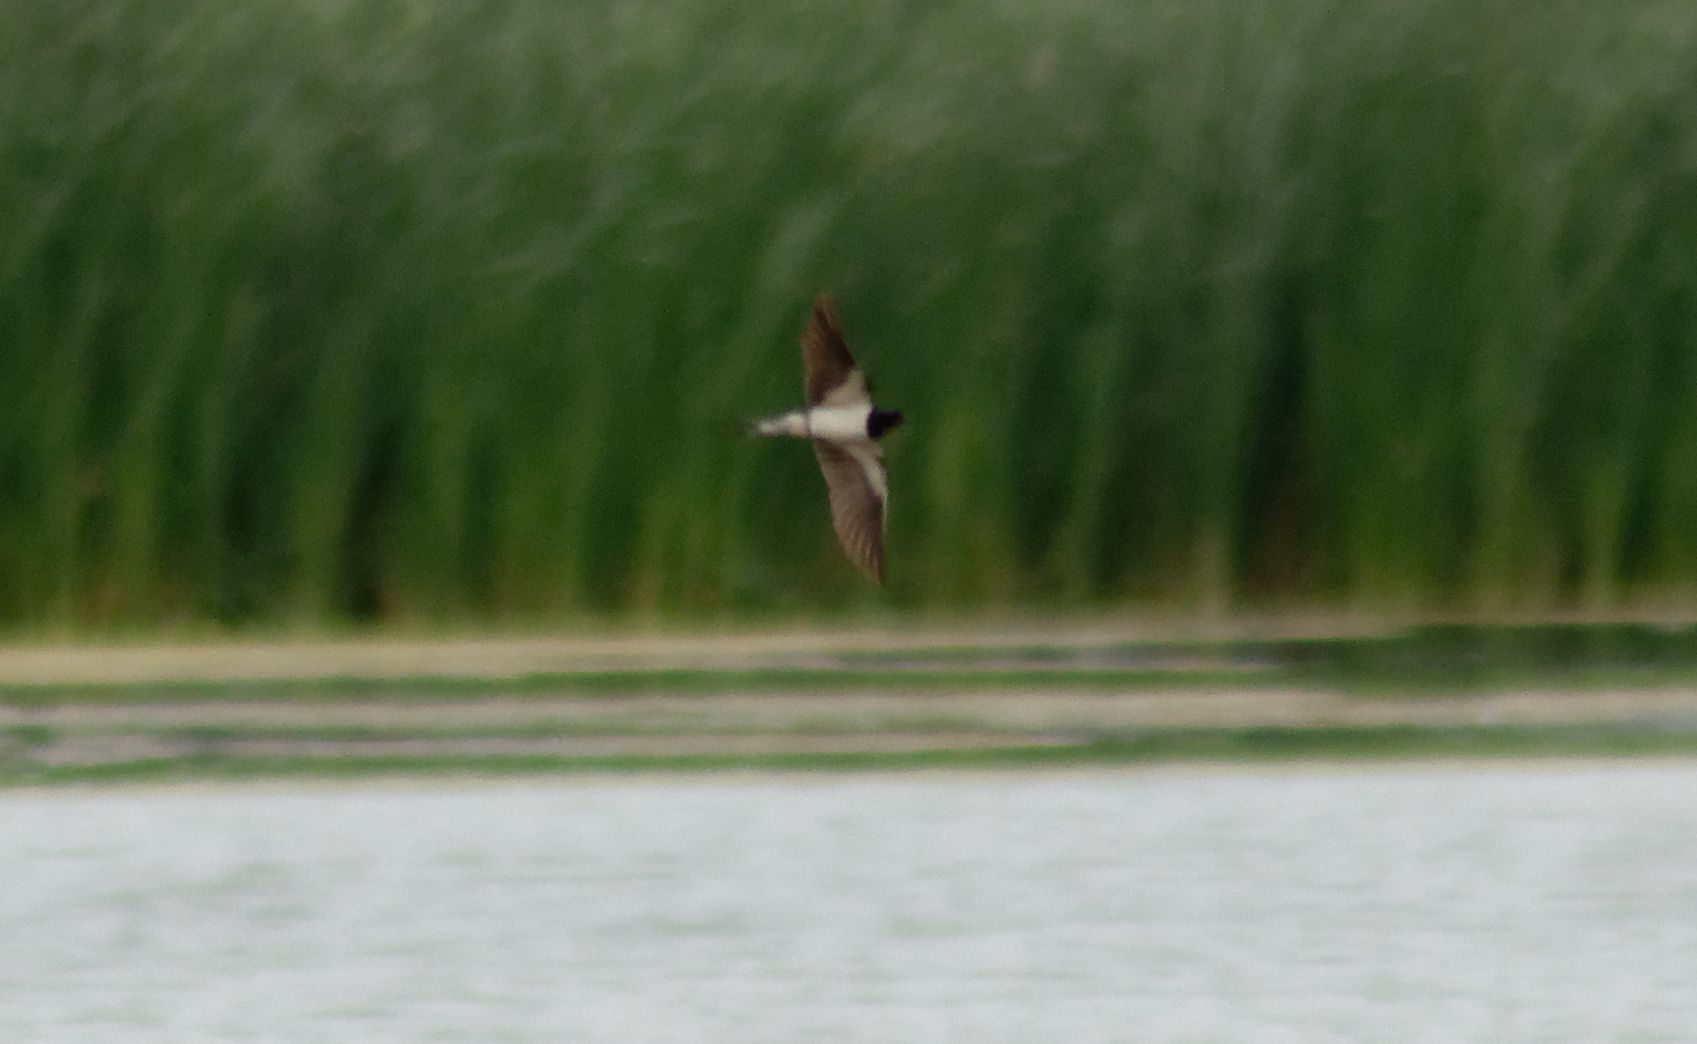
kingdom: Animalia
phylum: Chordata
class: Aves
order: Passeriformes
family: Hirundinidae
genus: Hirundo
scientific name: Hirundo rustica
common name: Barn swallow
